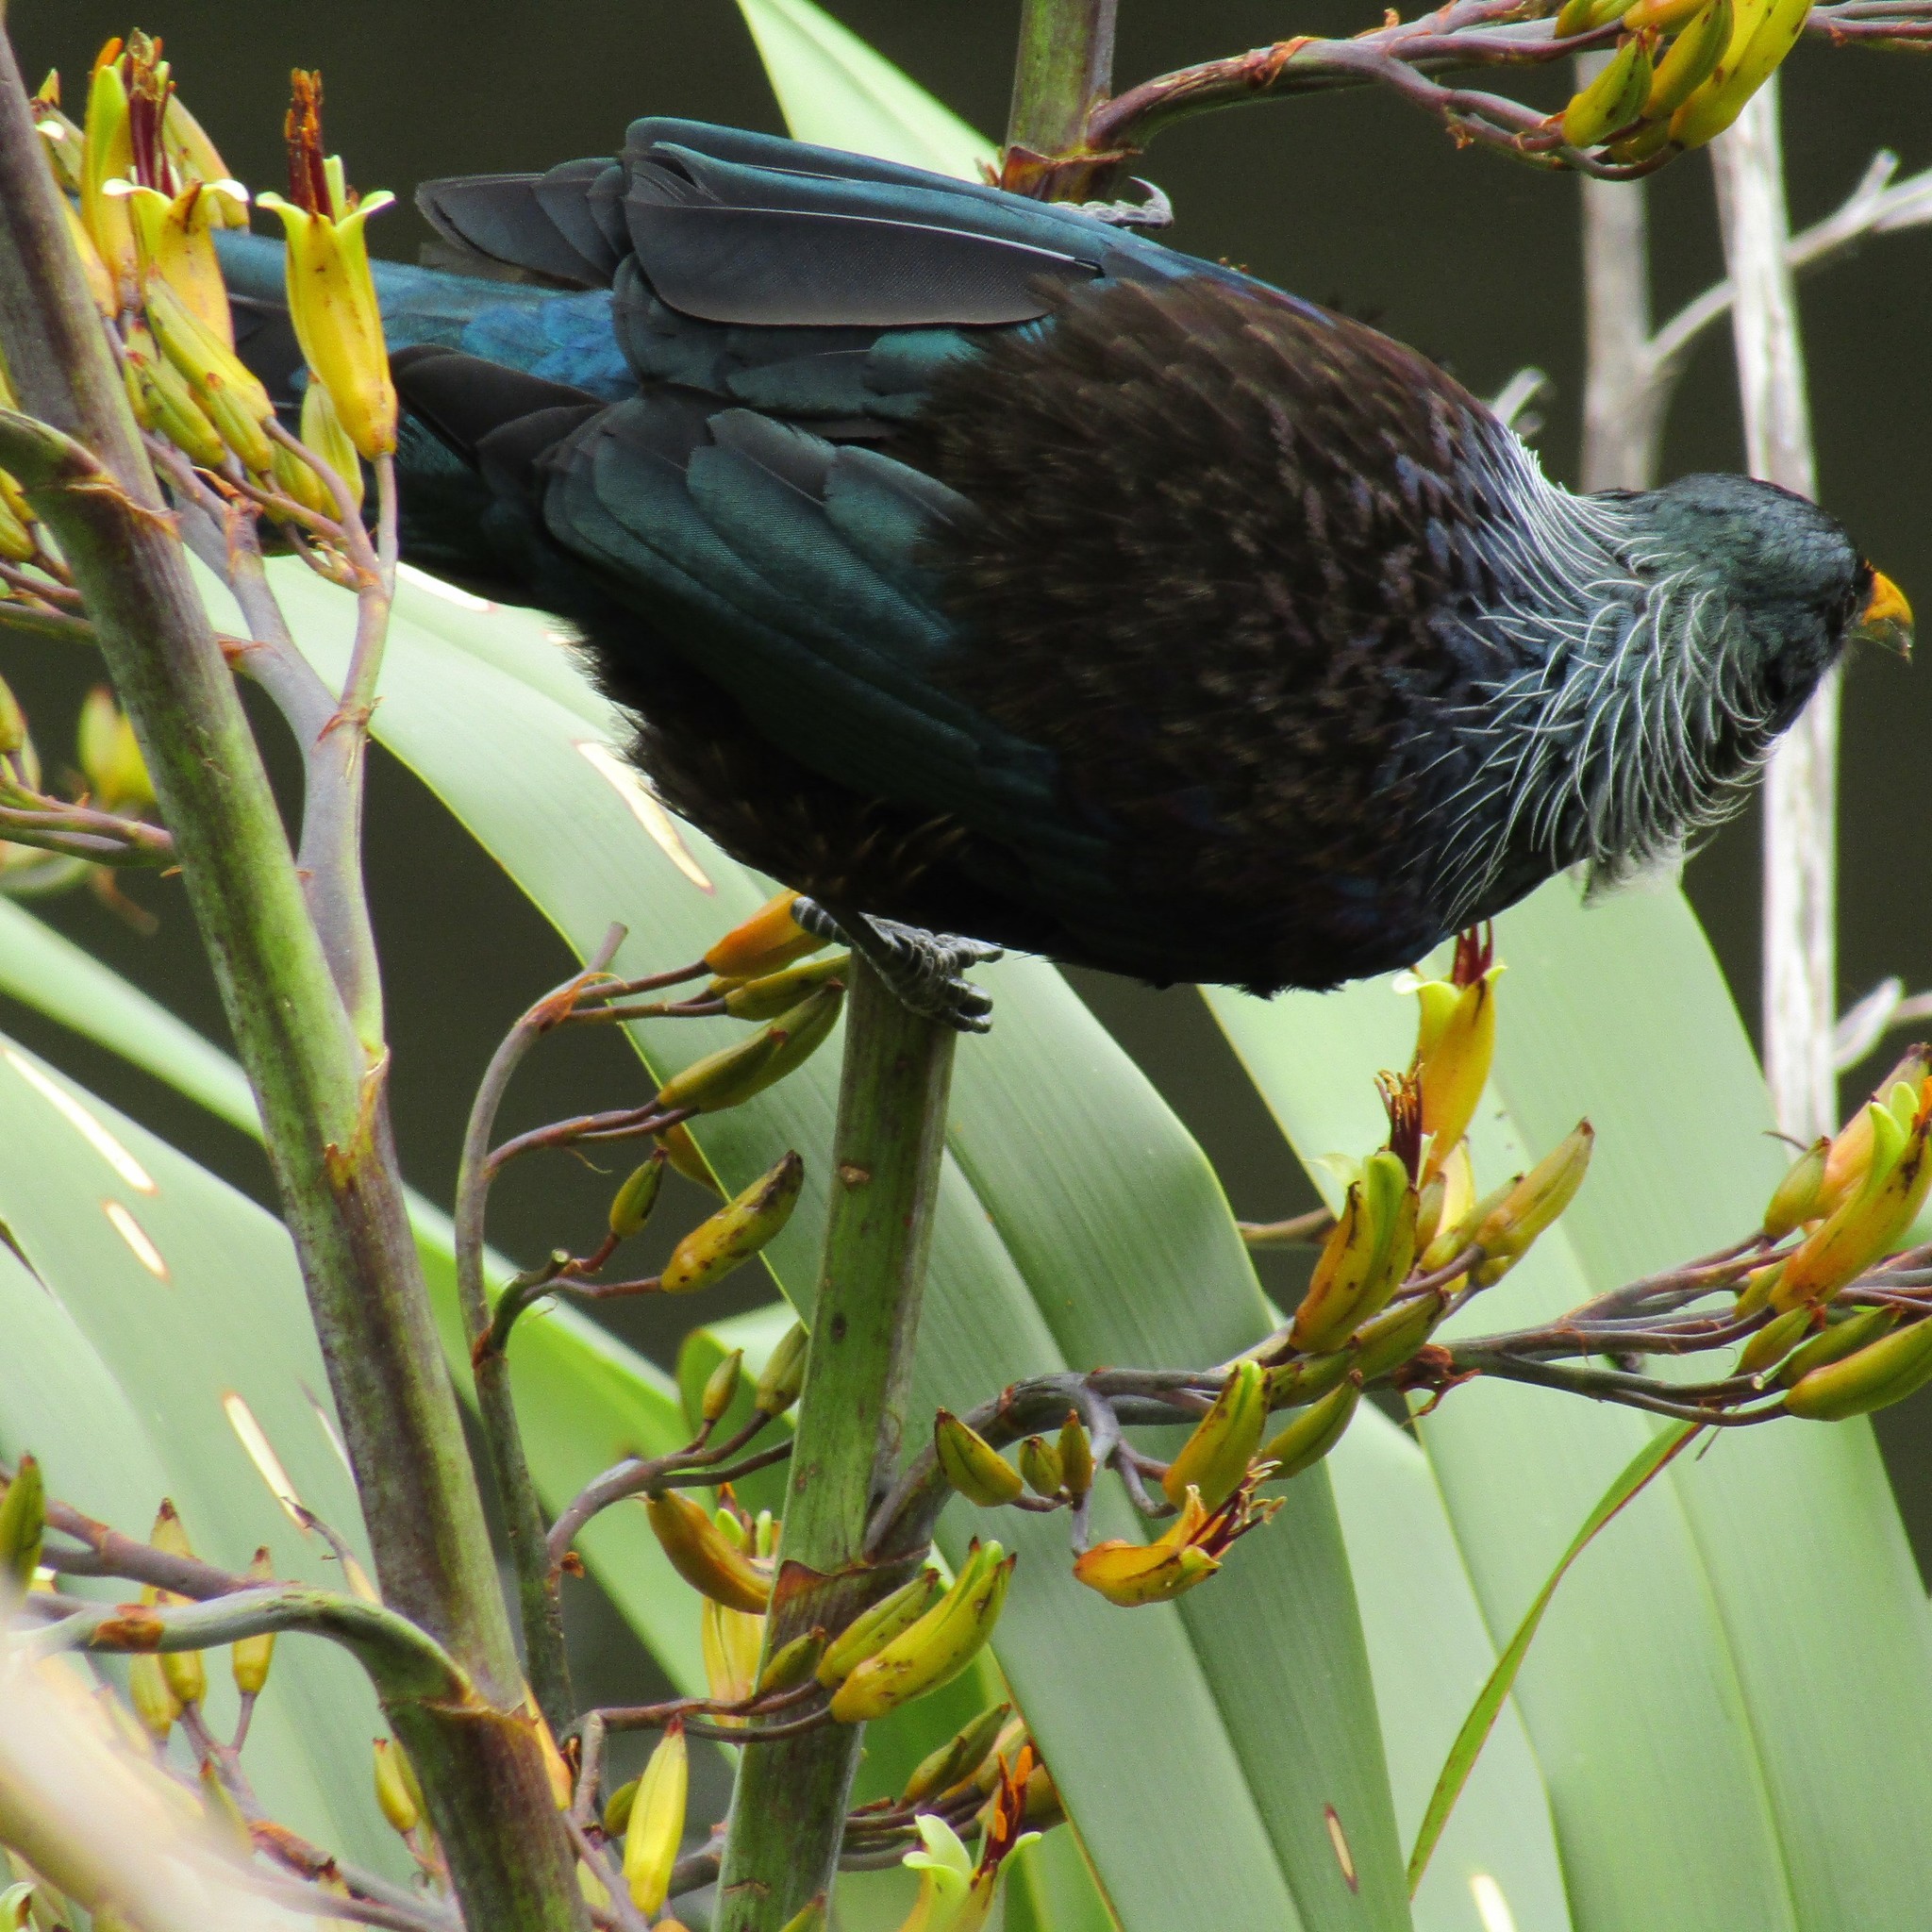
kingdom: Animalia
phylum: Chordata
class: Aves
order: Passeriformes
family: Meliphagidae
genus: Prosthemadera
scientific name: Prosthemadera novaeseelandiae
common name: Tui
